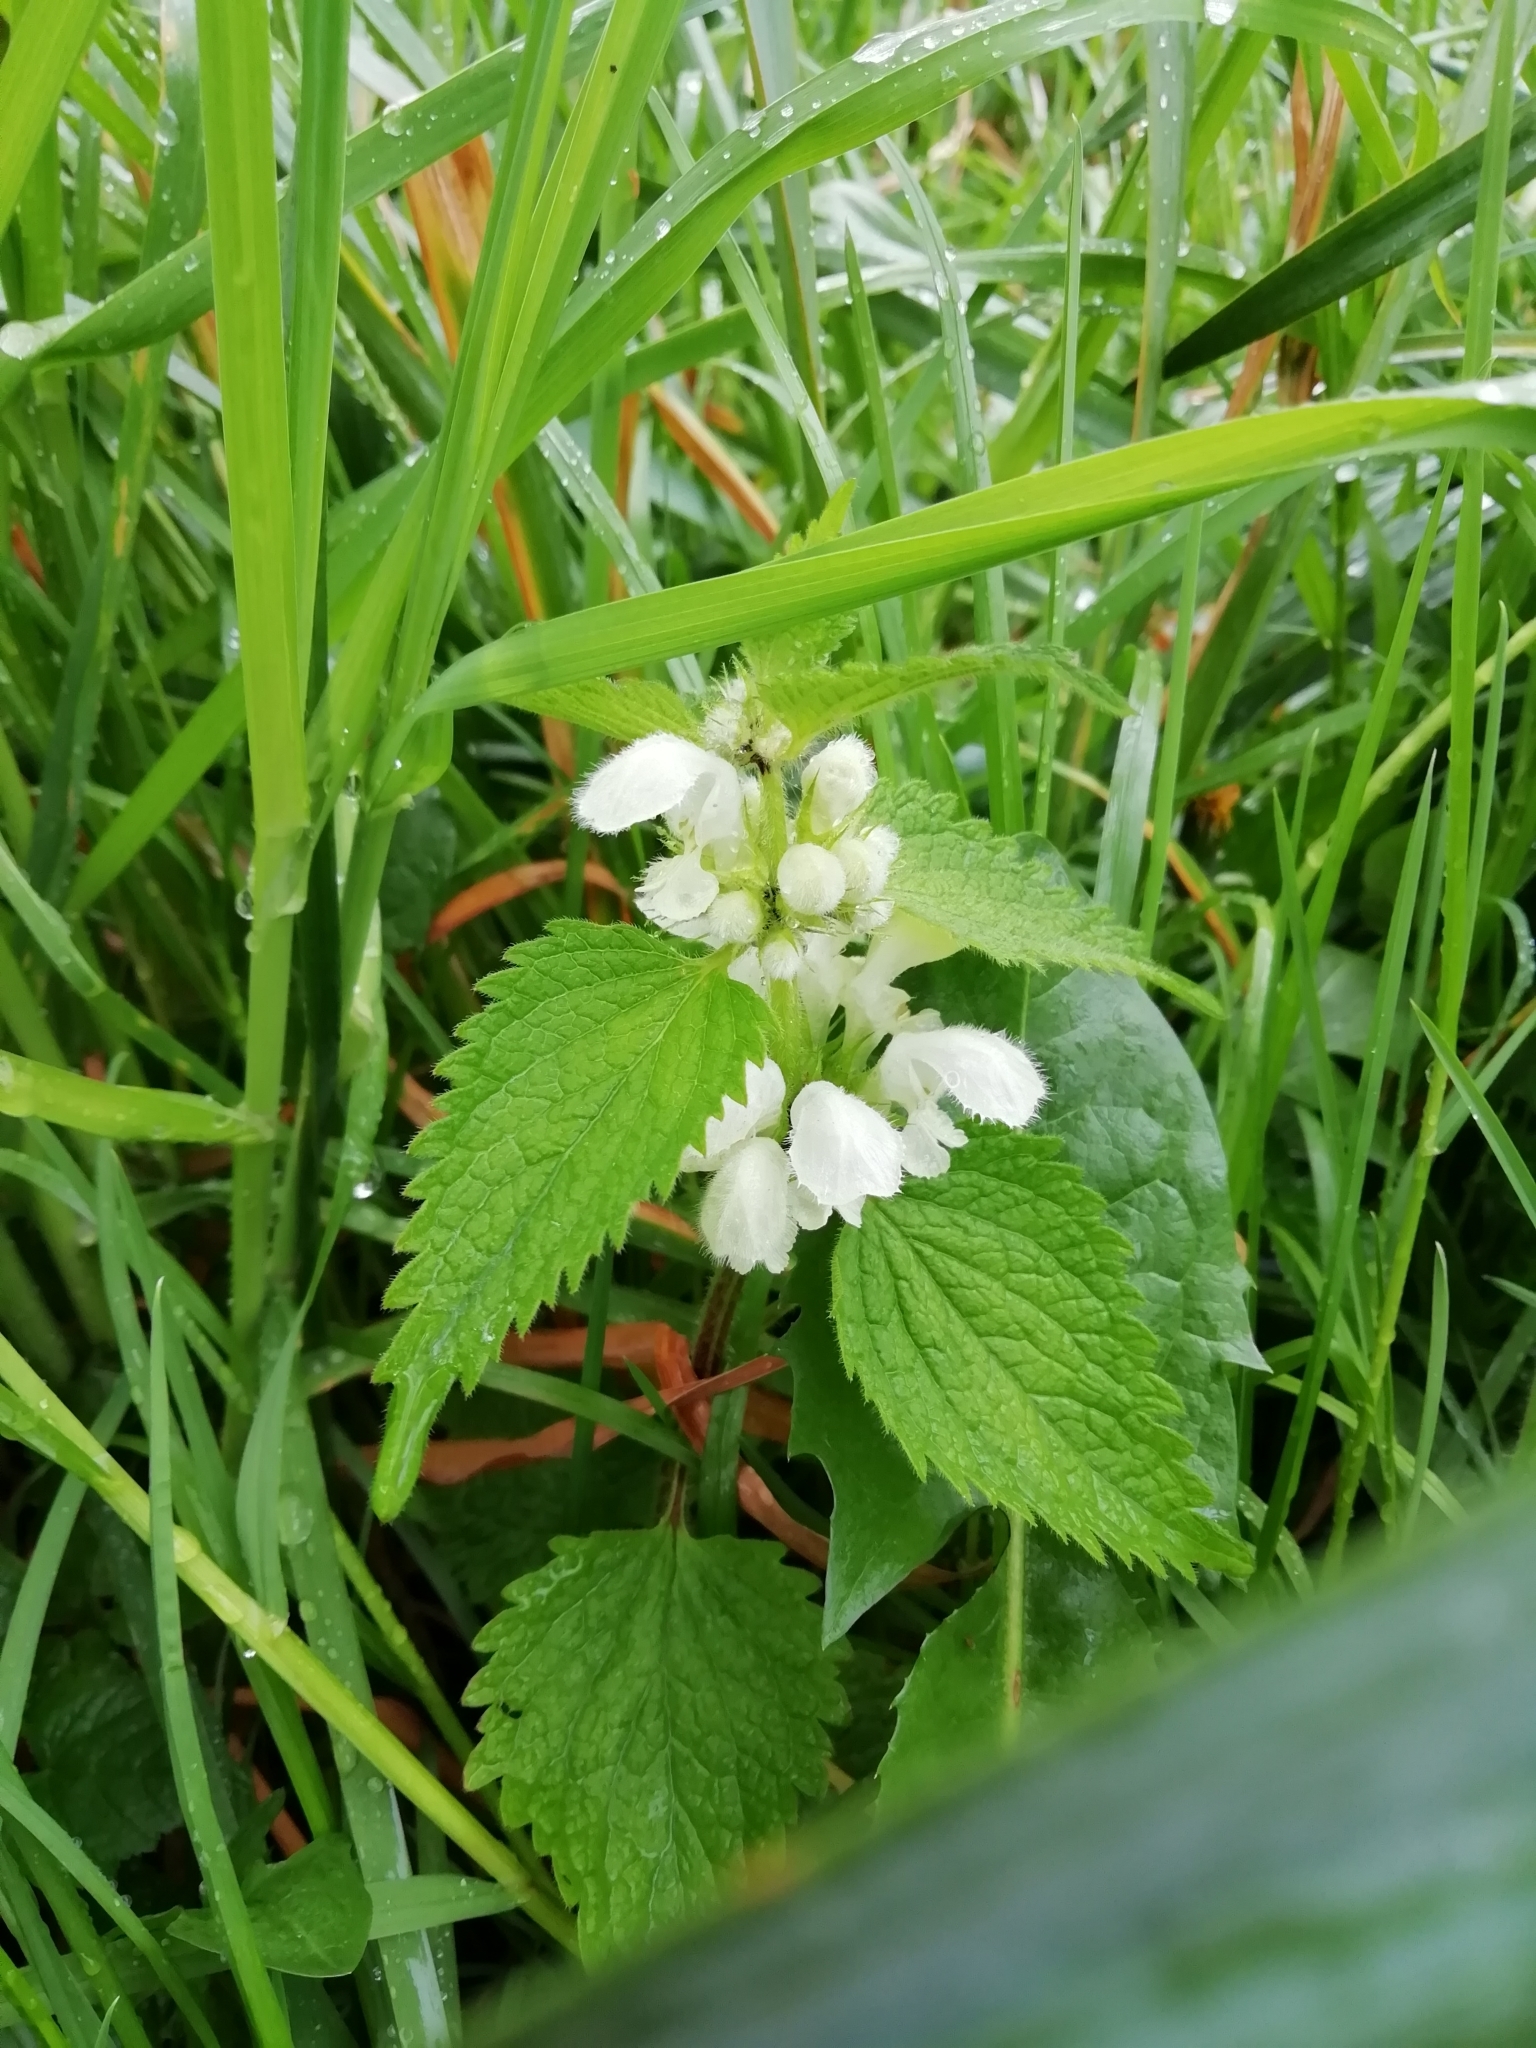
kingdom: Plantae
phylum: Tracheophyta
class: Magnoliopsida
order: Lamiales
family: Lamiaceae
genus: Lamium
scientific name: Lamium album
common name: White dead-nettle
